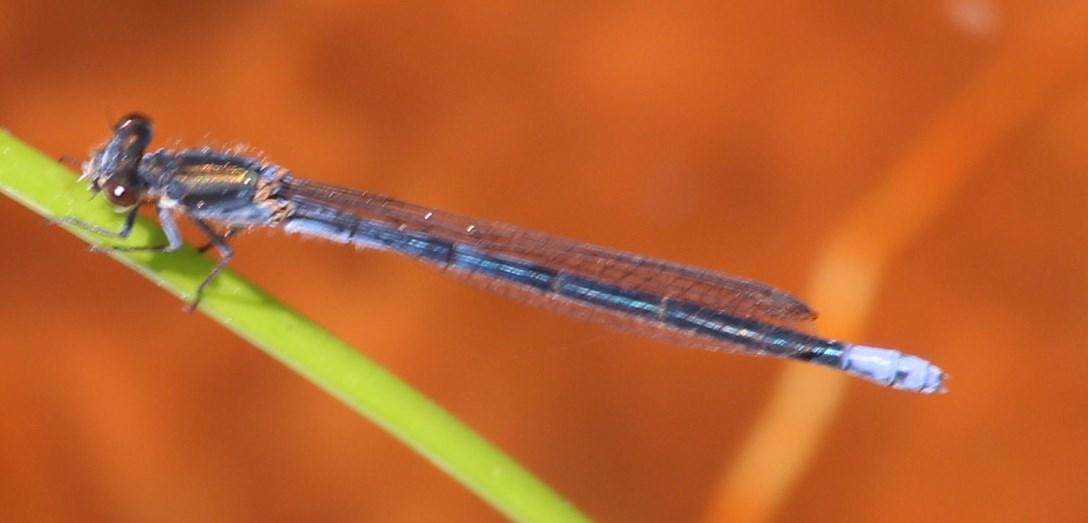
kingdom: Animalia
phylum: Arthropoda
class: Insecta
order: Odonata
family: Coenagrionidae
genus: Pseudagrion
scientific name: Pseudagrion draconis
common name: Mountain sprite
